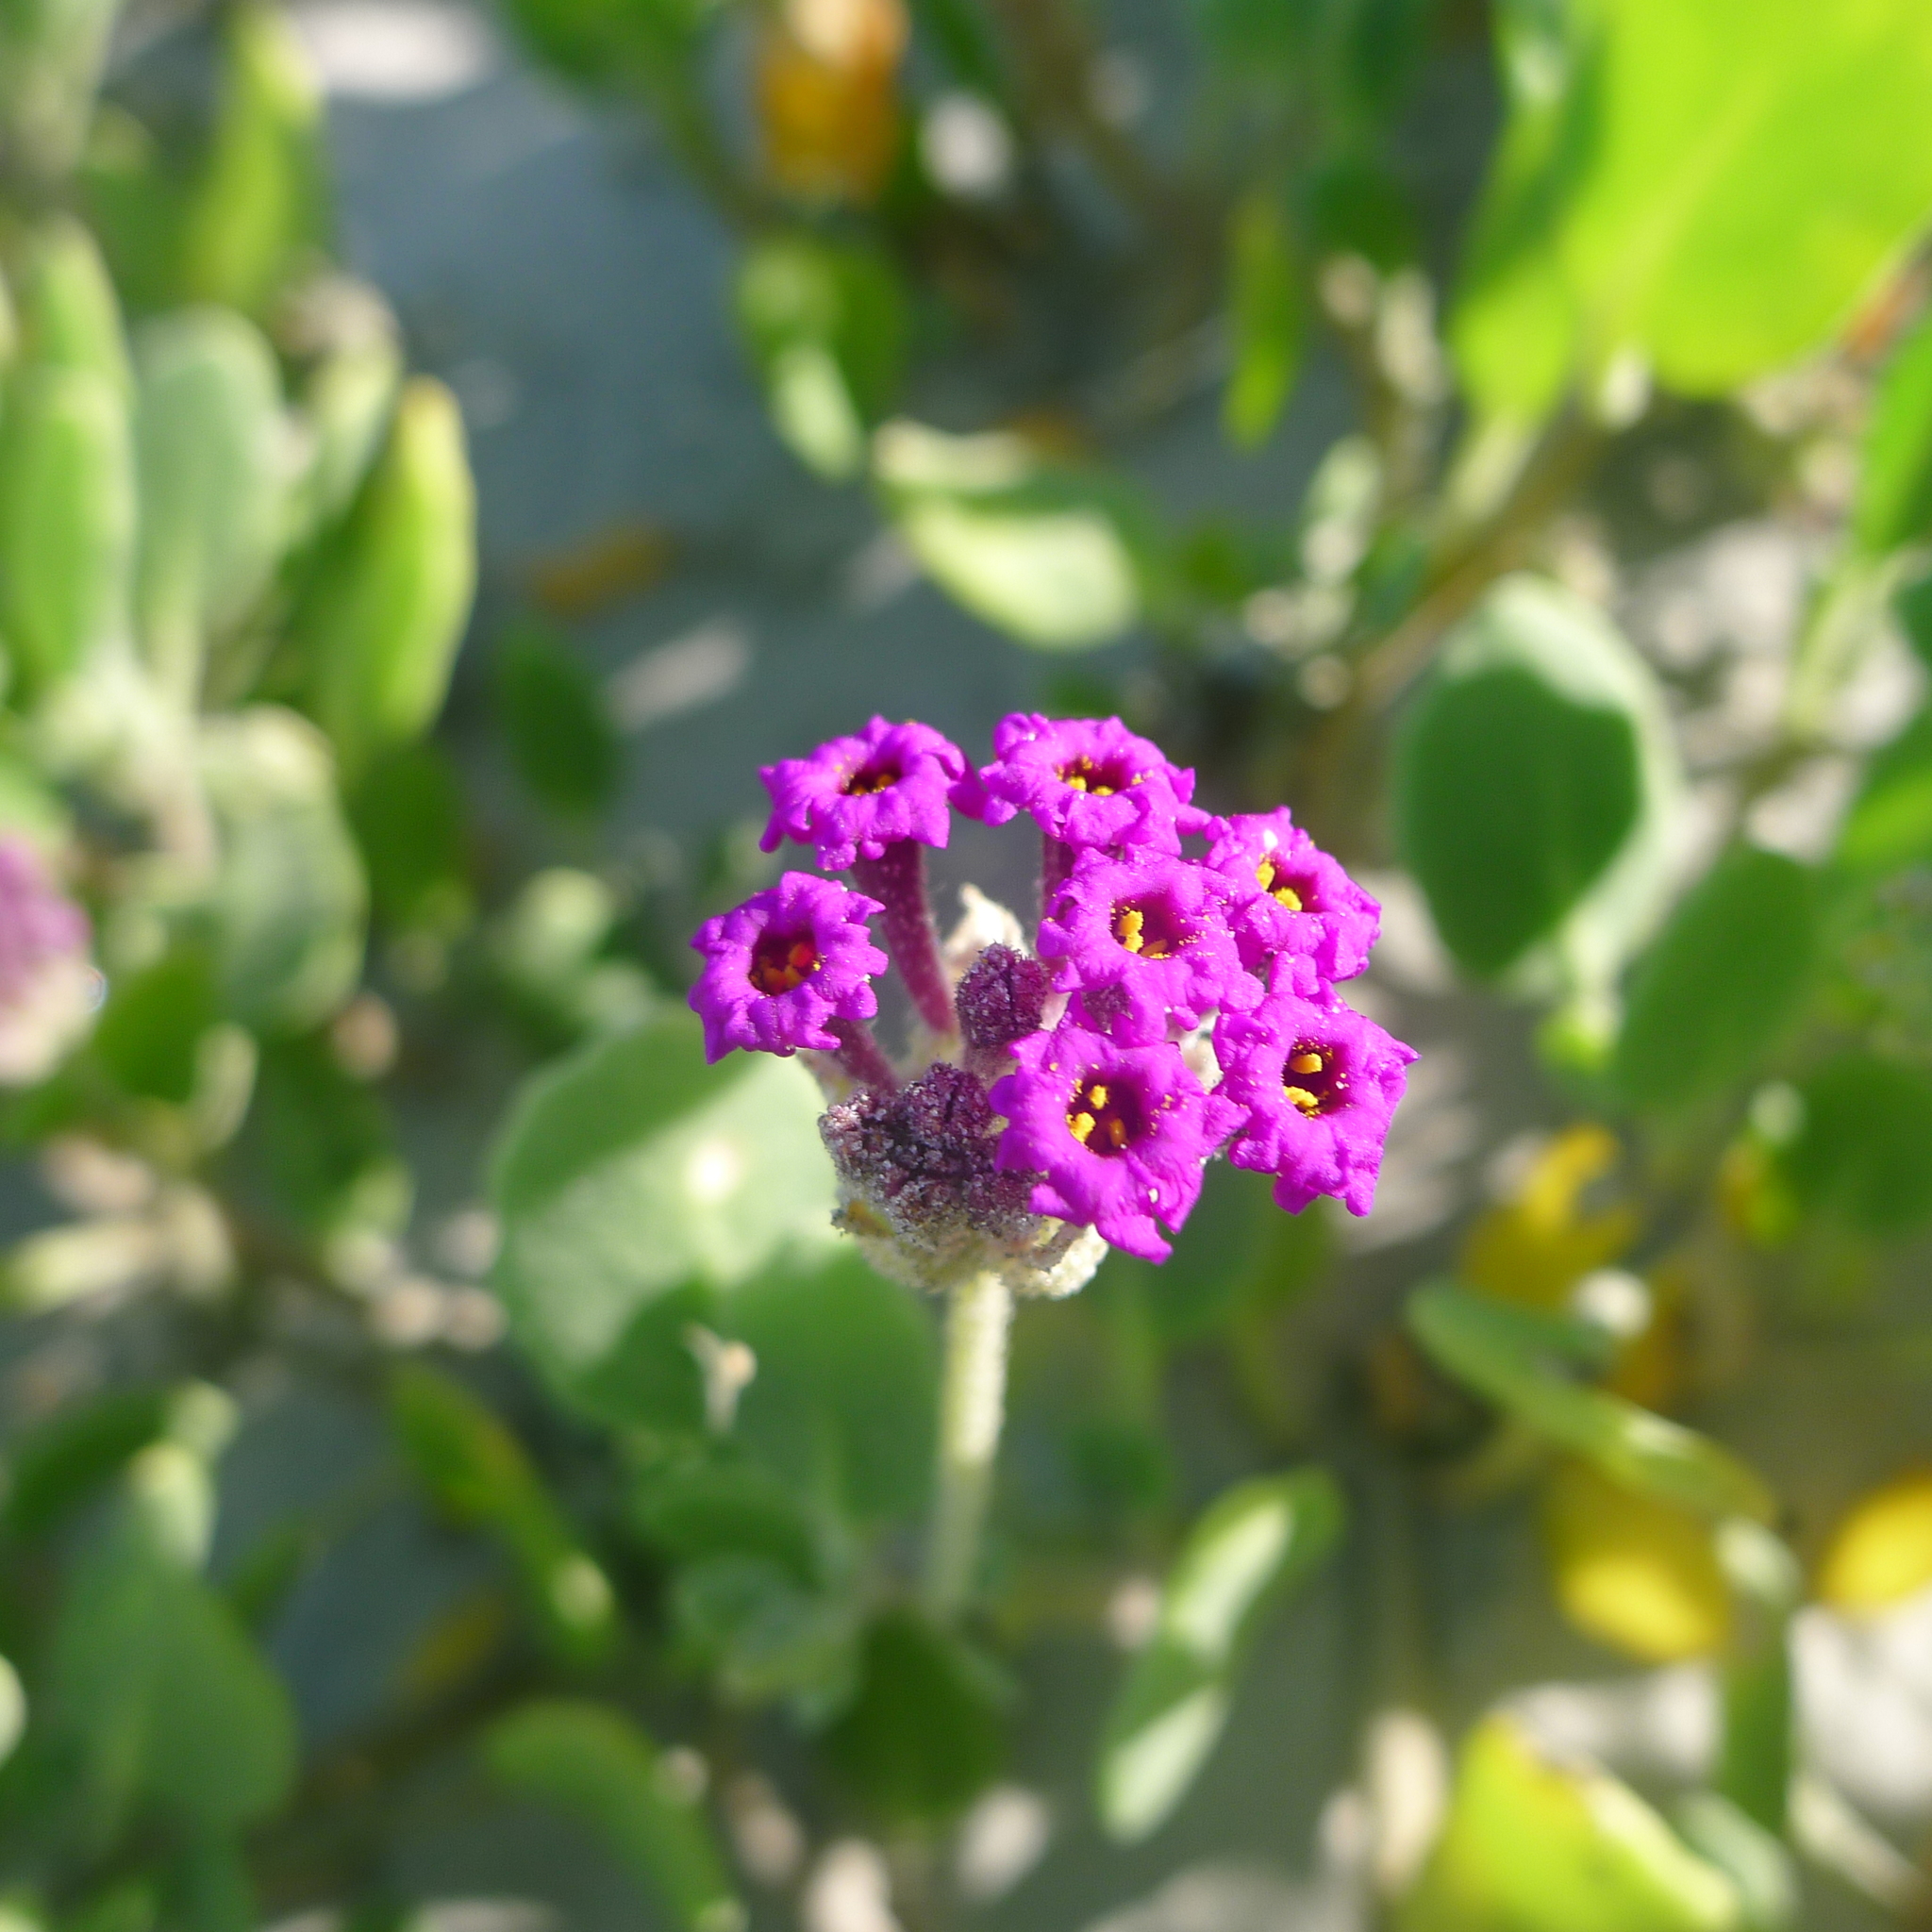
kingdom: Plantae
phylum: Tracheophyta
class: Magnoliopsida
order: Caryophyllales
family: Nyctaginaceae
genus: Abronia
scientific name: Abronia maritima
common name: Red sand-verbena
